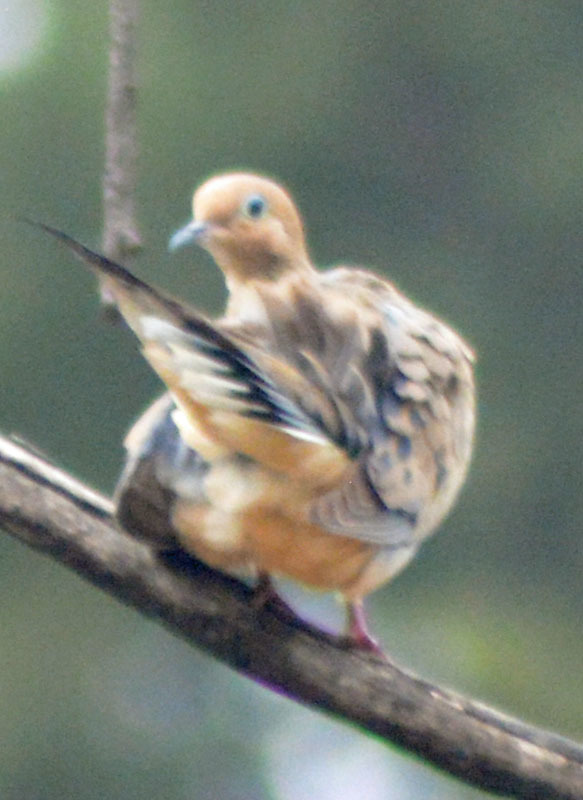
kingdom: Animalia
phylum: Chordata
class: Aves
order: Columbiformes
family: Columbidae
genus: Zenaida
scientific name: Zenaida macroura
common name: Mourning dove
